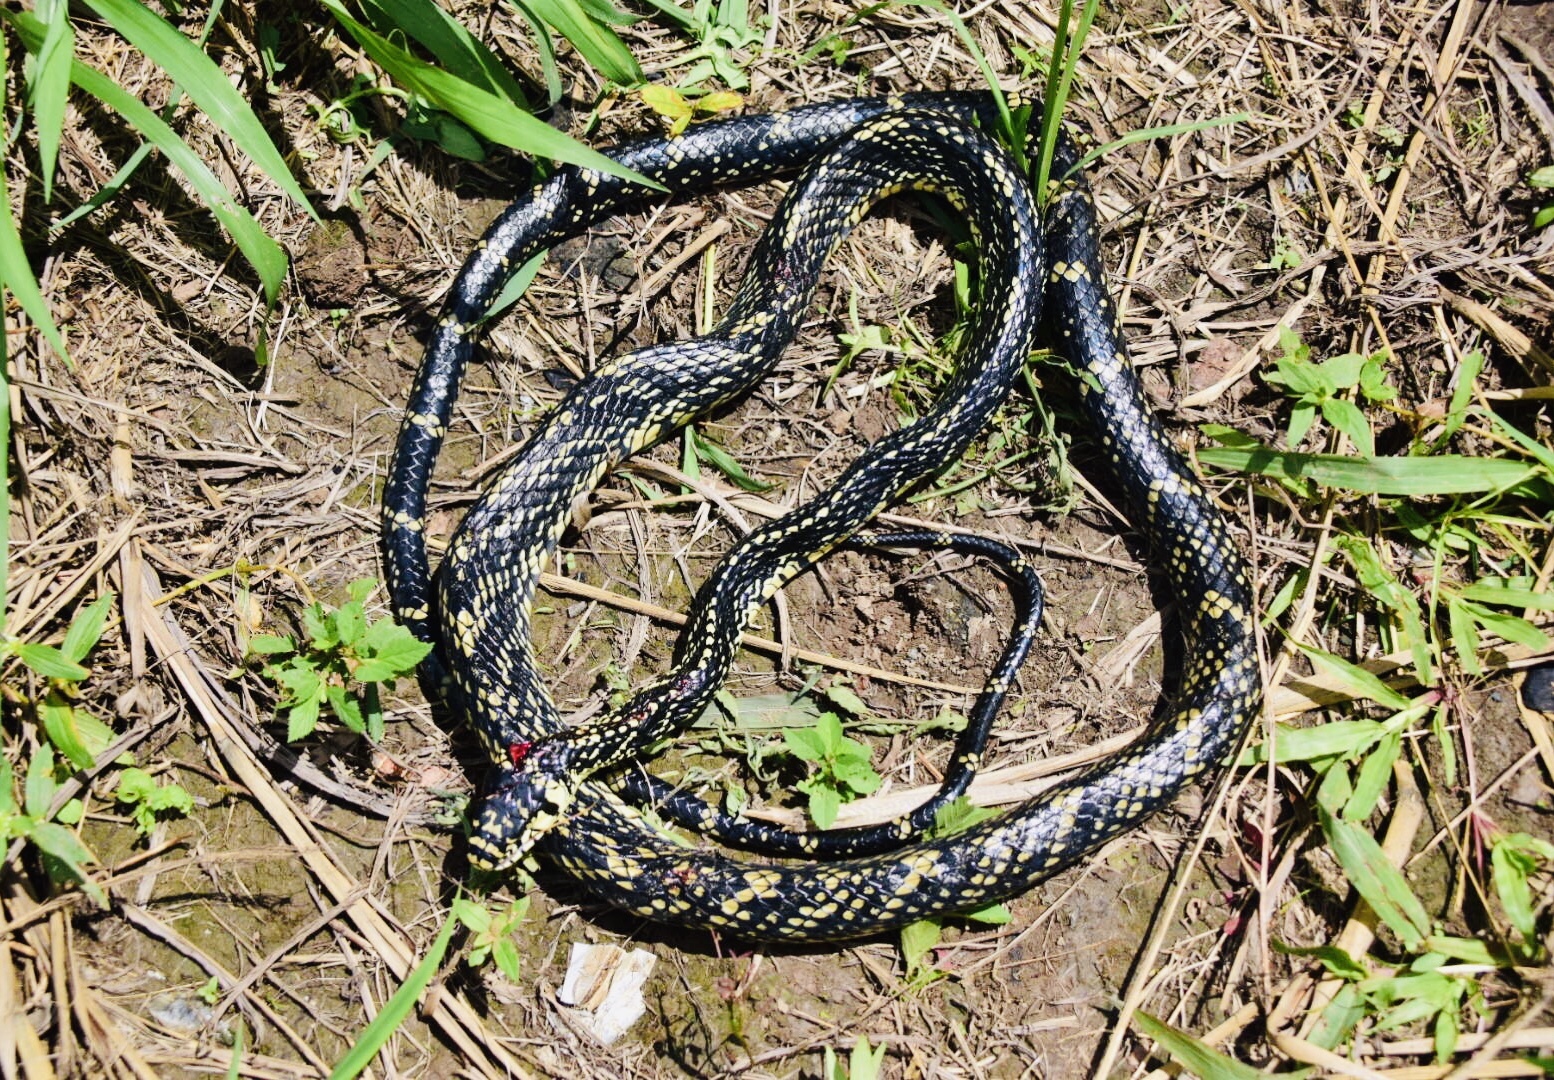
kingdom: Animalia
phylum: Chordata
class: Squamata
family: Colubridae
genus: Spilotes
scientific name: Spilotes pullatus
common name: Chicken snake
